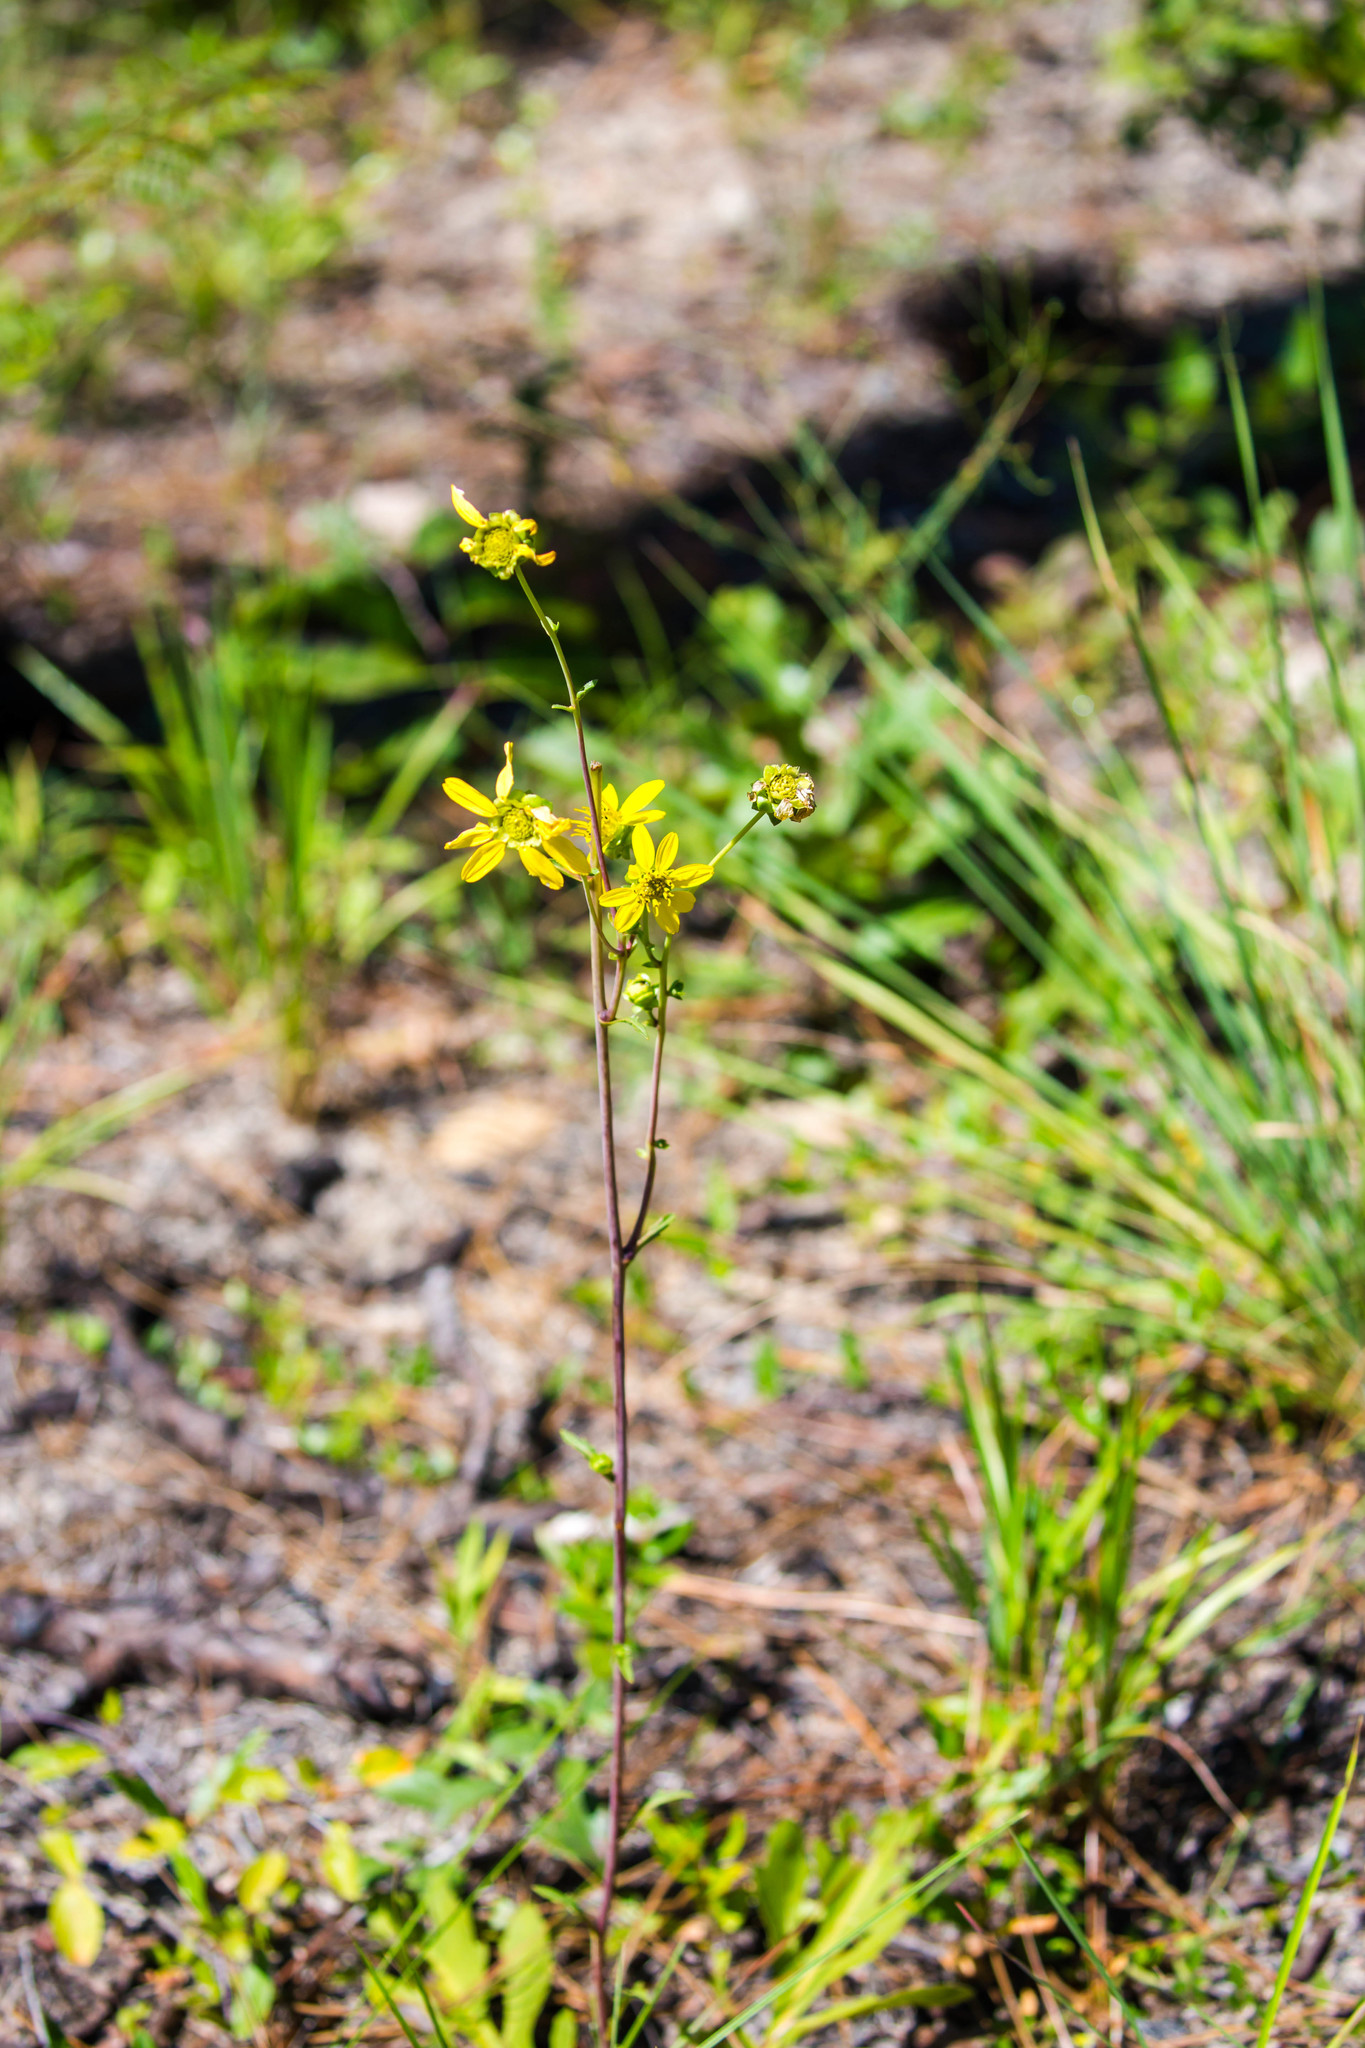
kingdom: Plantae
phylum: Tracheophyta
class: Magnoliopsida
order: Asterales
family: Asteraceae
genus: Silphium
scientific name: Silphium compositum
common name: Lesser basal-leaf rosinweed
